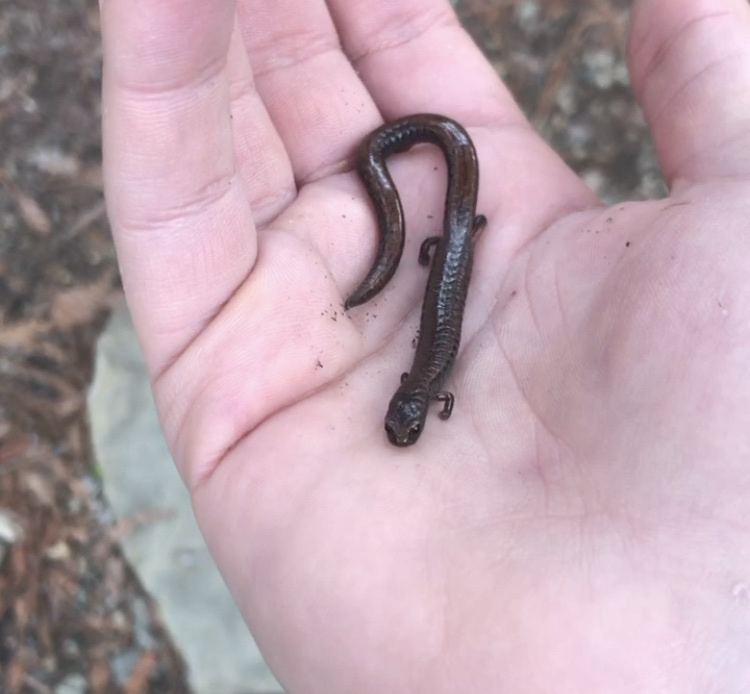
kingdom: Animalia
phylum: Chordata
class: Amphibia
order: Caudata
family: Plethodontidae
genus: Batrachoseps
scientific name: Batrachoseps attenuatus
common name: California slender salamander
